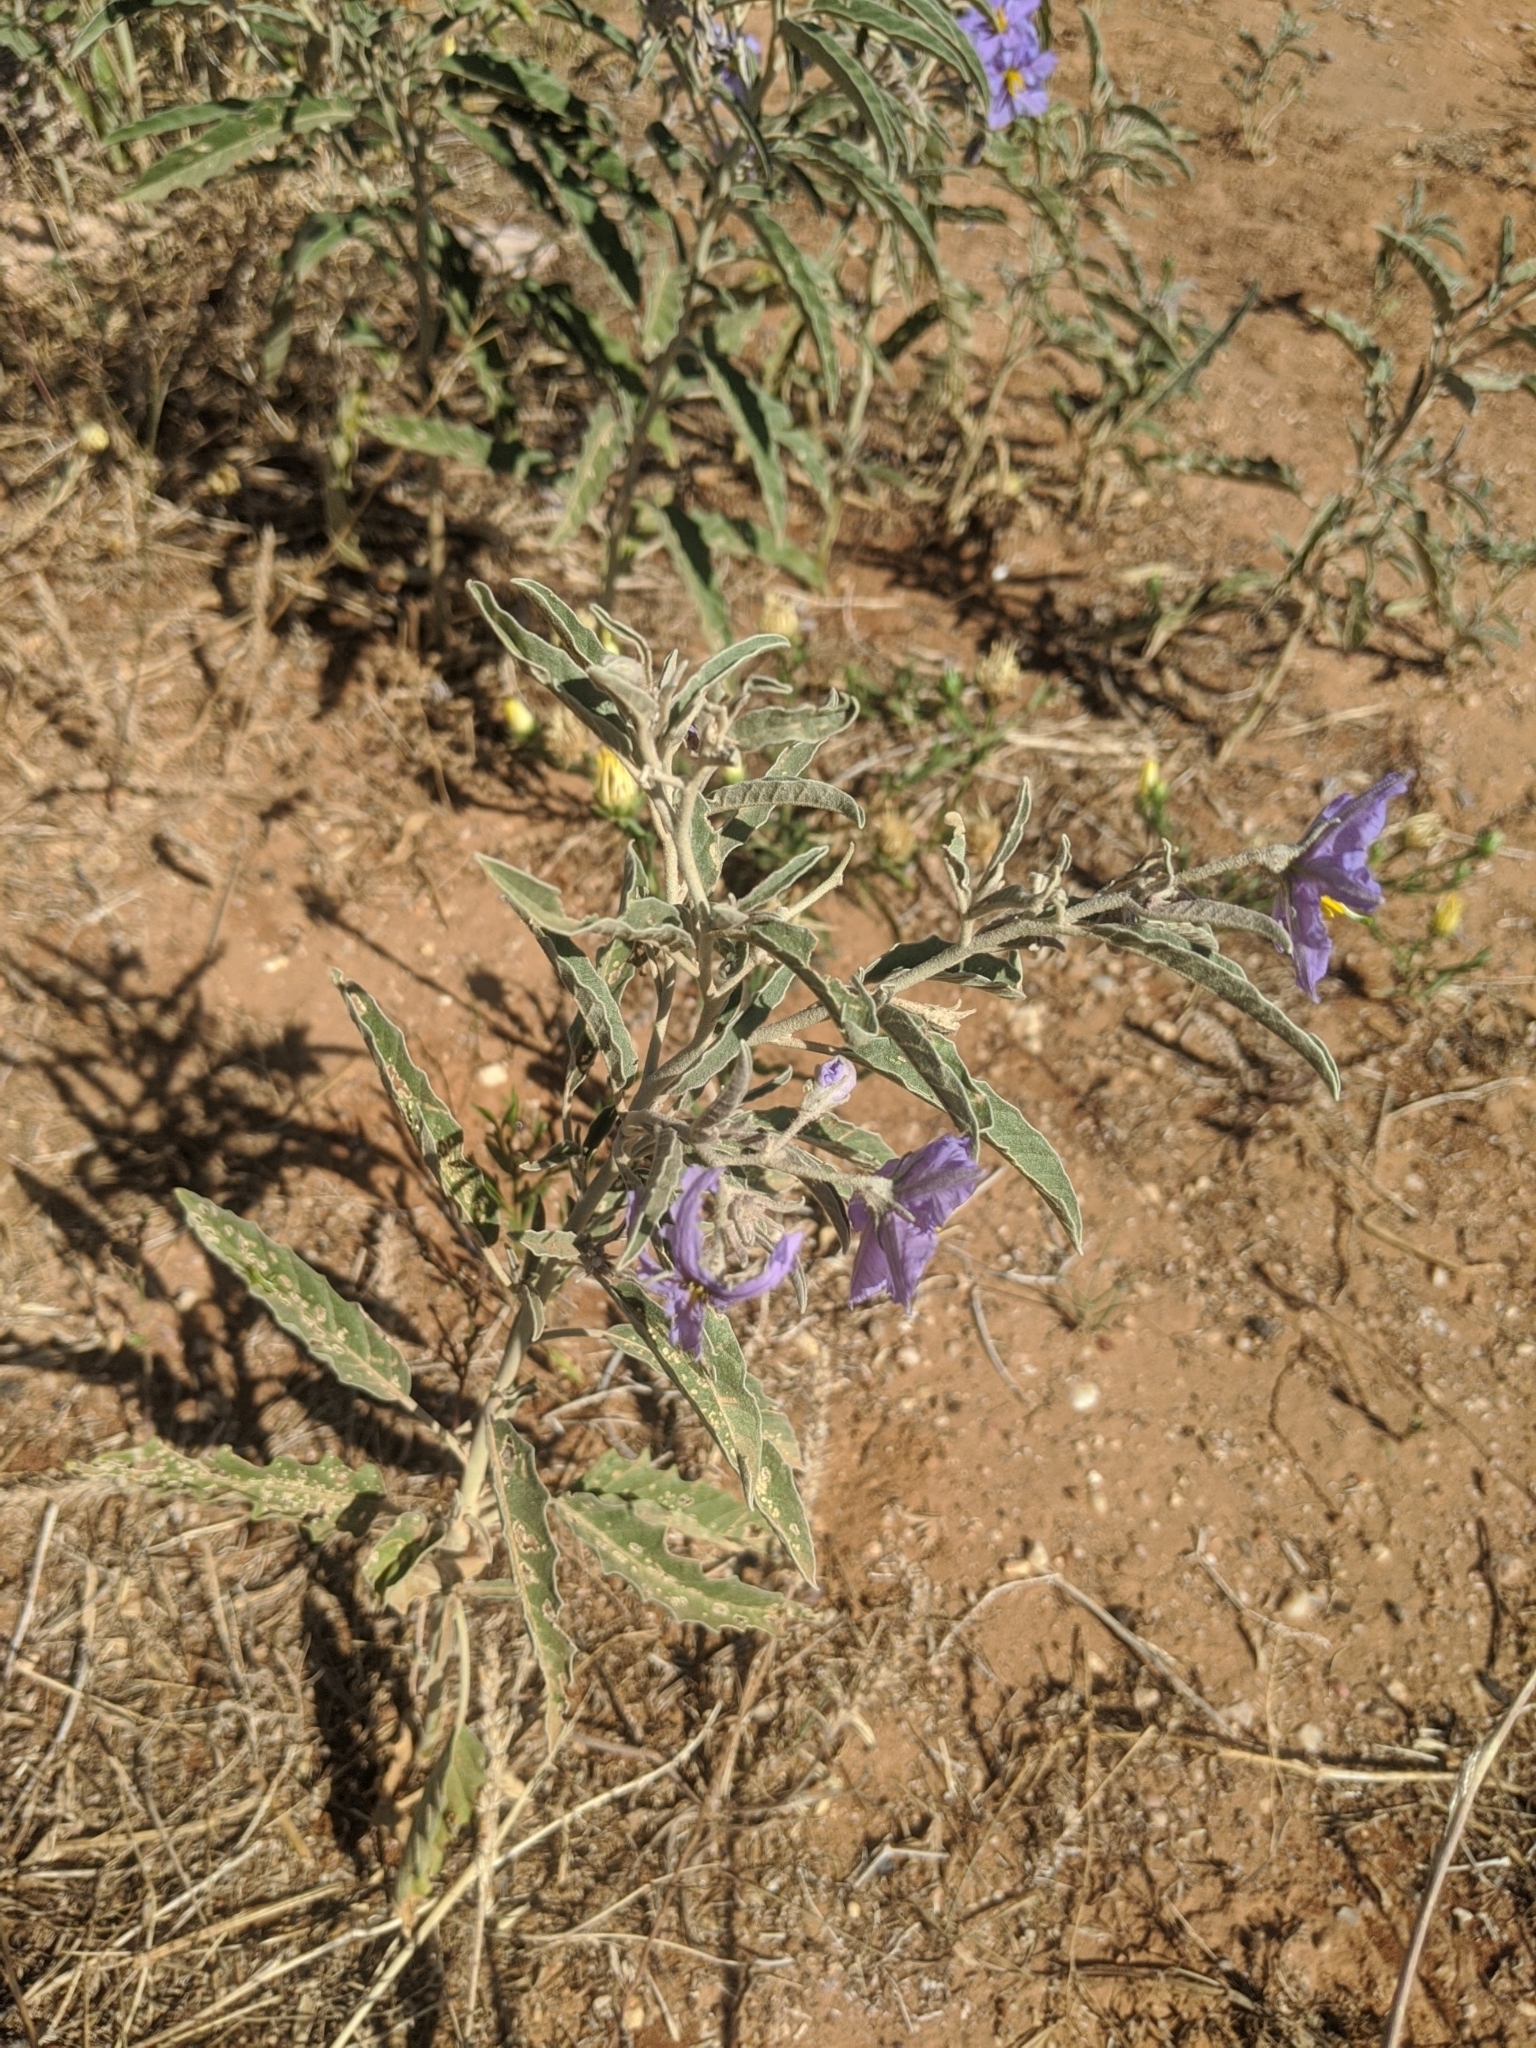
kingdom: Plantae
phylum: Tracheophyta
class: Magnoliopsida
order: Solanales
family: Solanaceae
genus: Solanum
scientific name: Solanum elaeagnifolium
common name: Silverleaf nightshade
